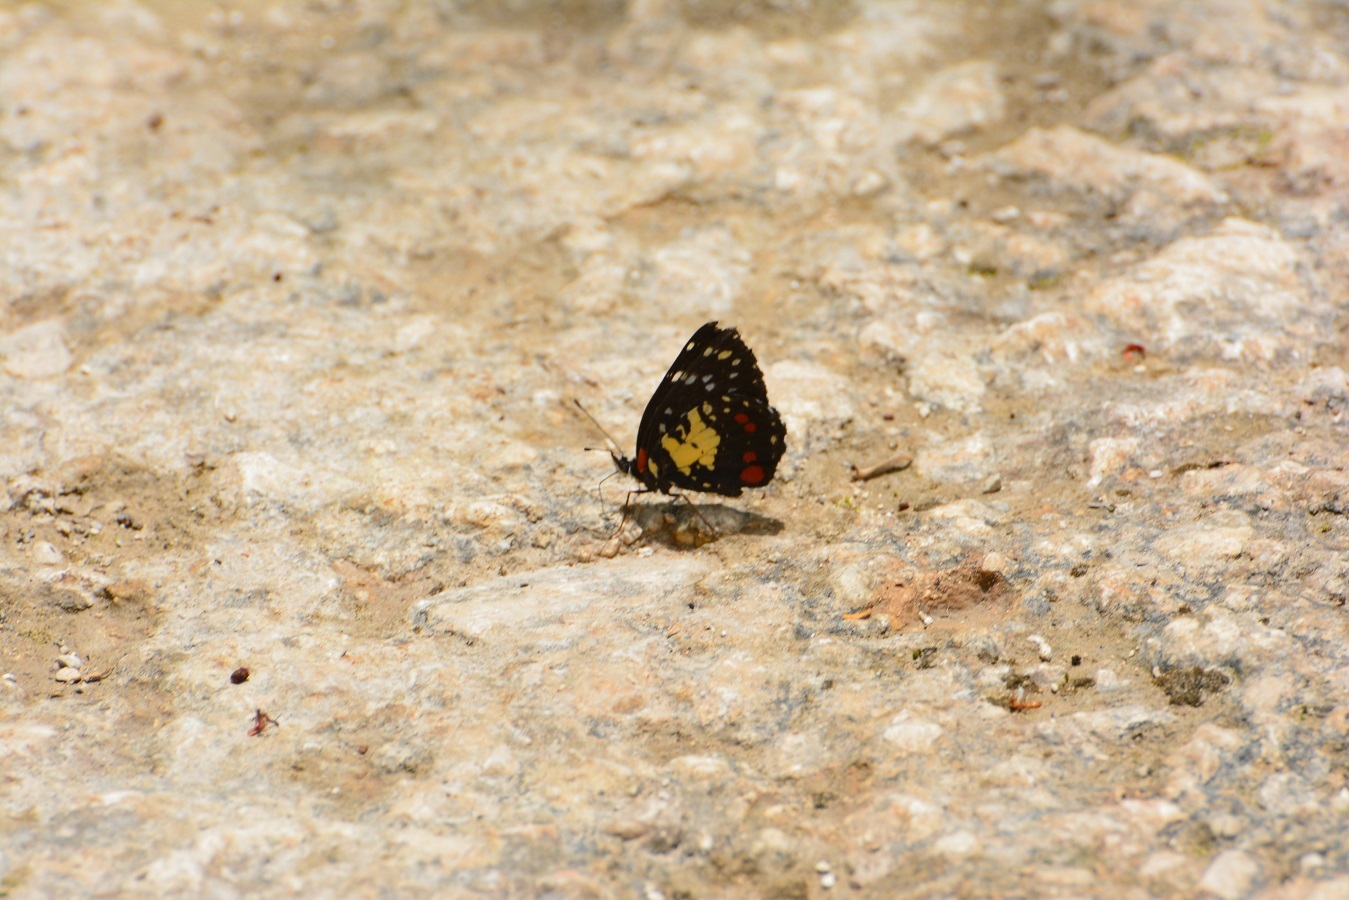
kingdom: Animalia
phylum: Arthropoda
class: Insecta
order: Lepidoptera
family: Nymphalidae
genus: Chlosyne
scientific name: Chlosyne erodyle
